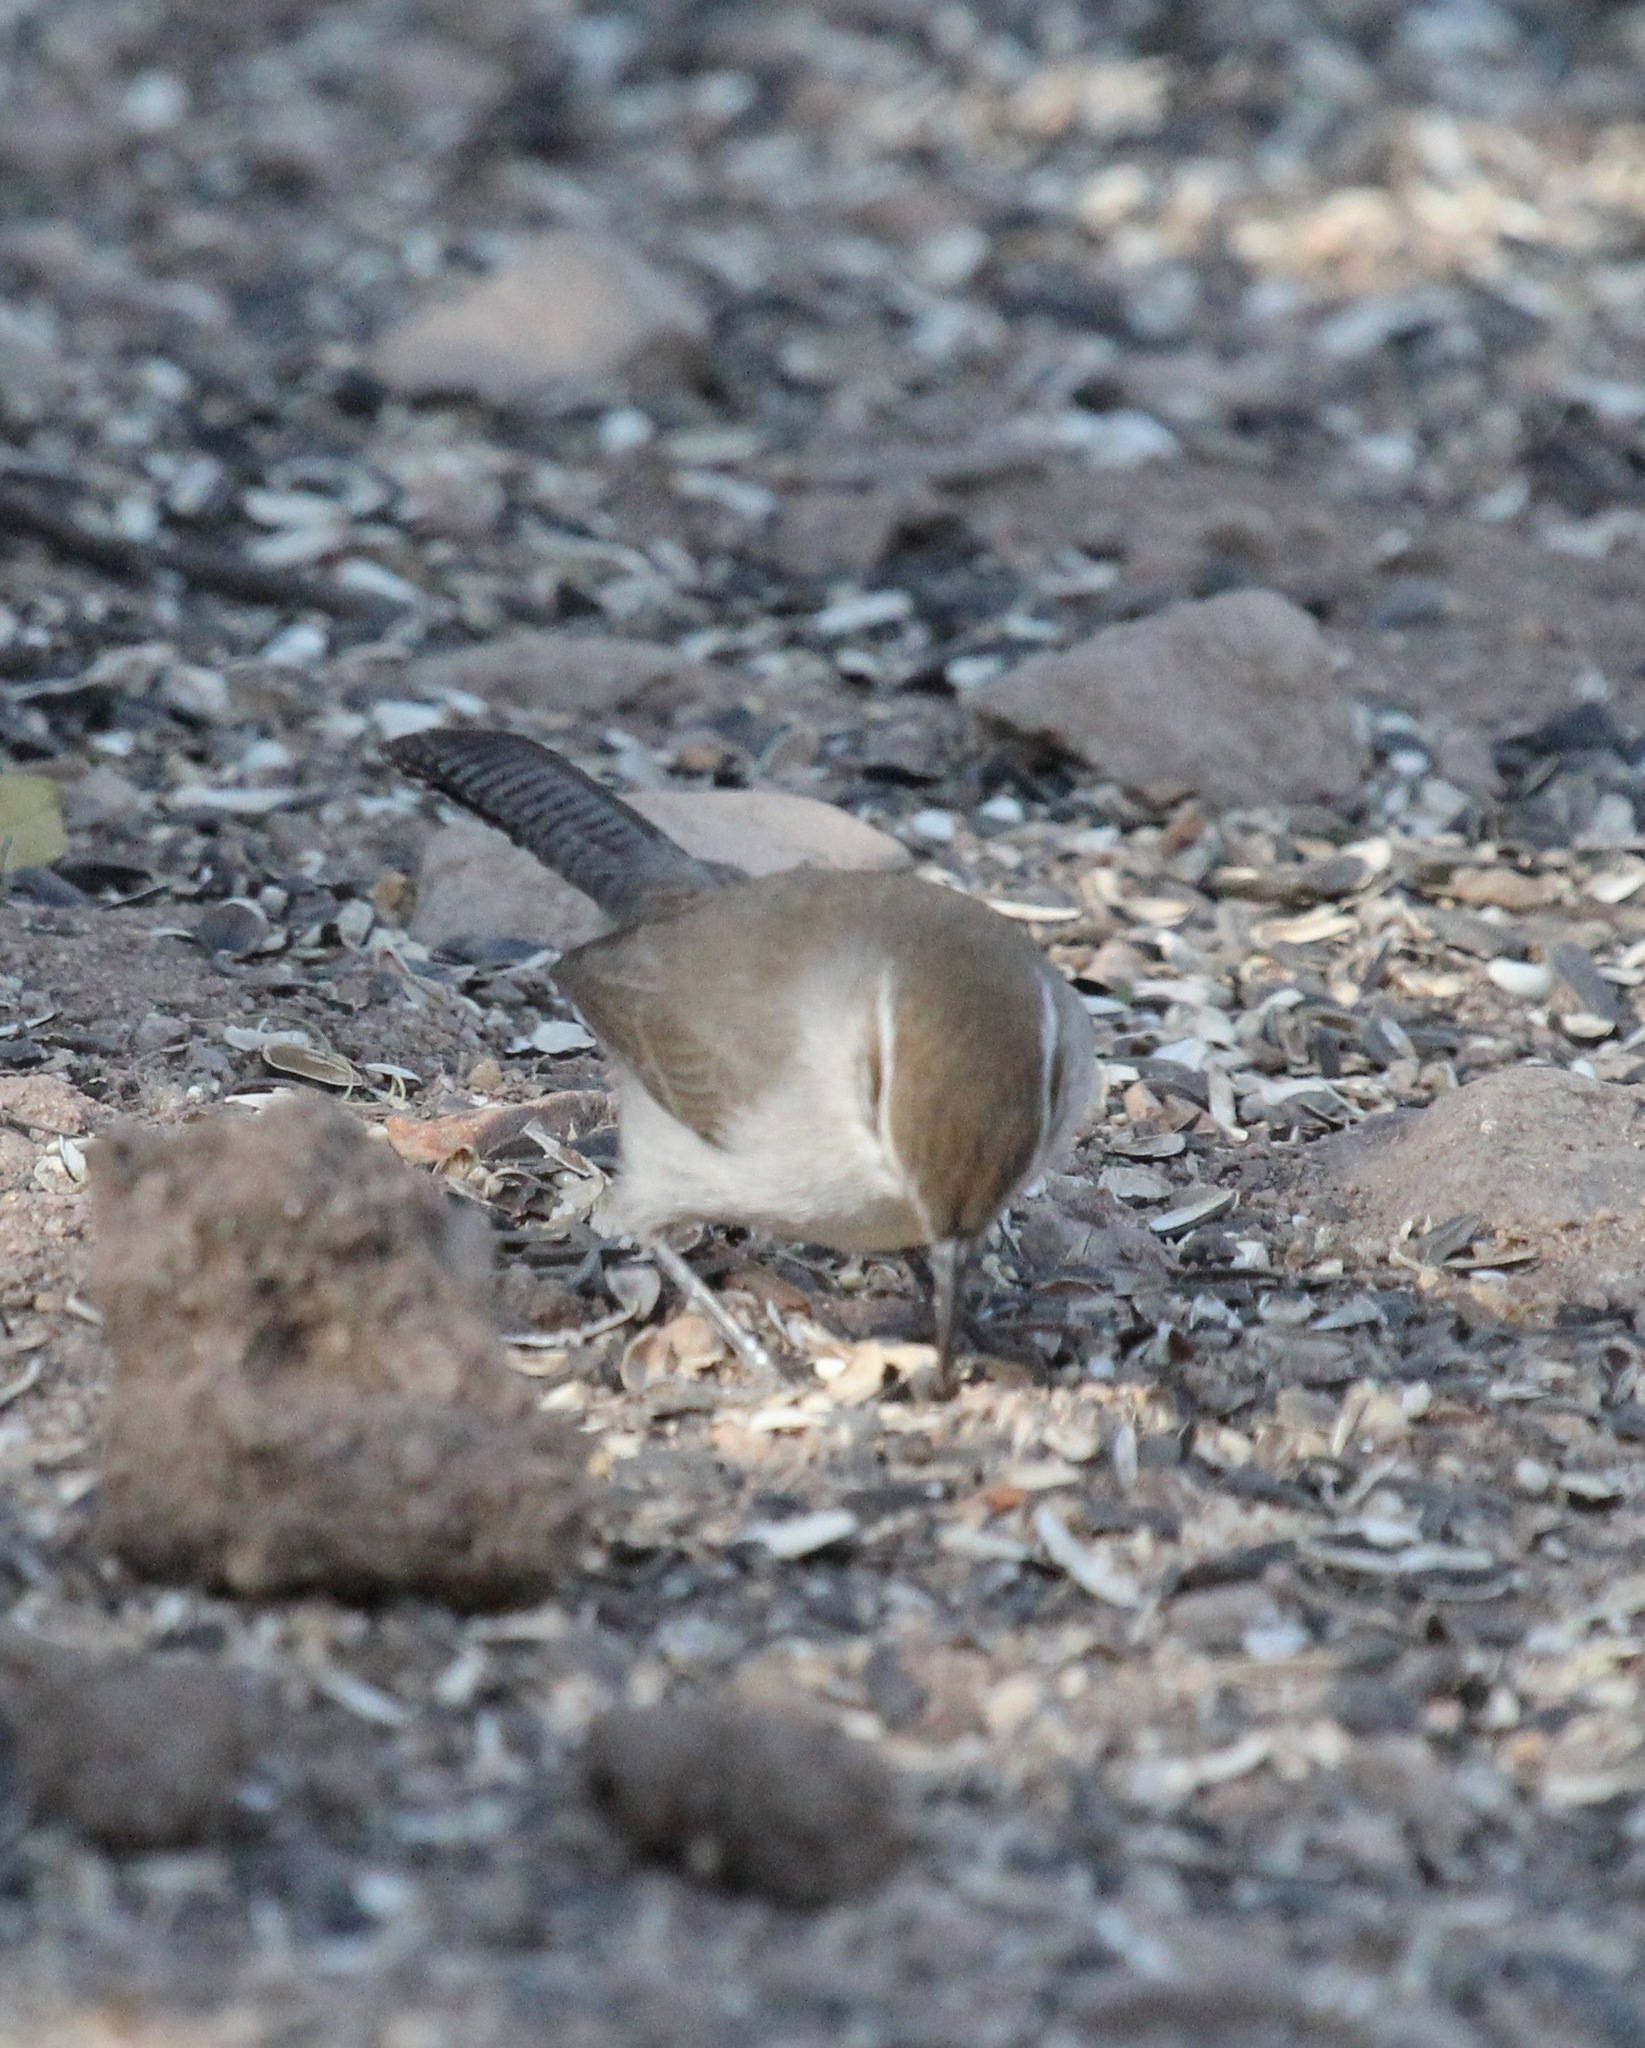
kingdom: Animalia
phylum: Chordata
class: Aves
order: Passeriformes
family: Troglodytidae
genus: Thryomanes
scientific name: Thryomanes bewickii
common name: Bewick's wren
